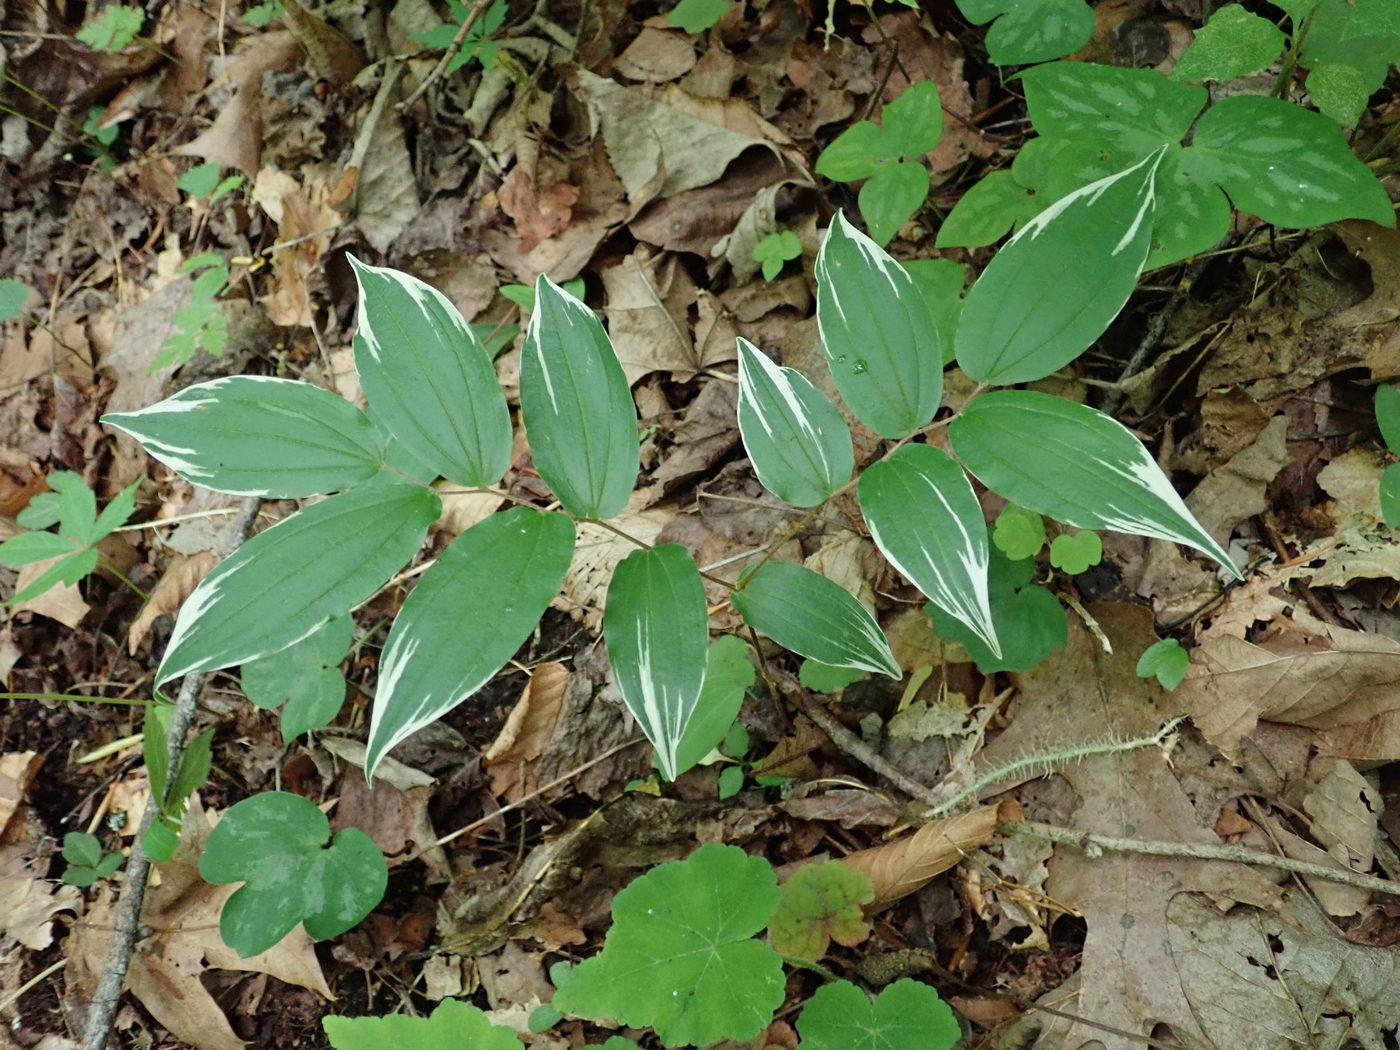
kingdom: Plantae
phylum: Tracheophyta
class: Liliopsida
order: Liliales
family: Liliaceae
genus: Prosartes
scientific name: Prosartes lanuginosa
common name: Hairy mandarin
